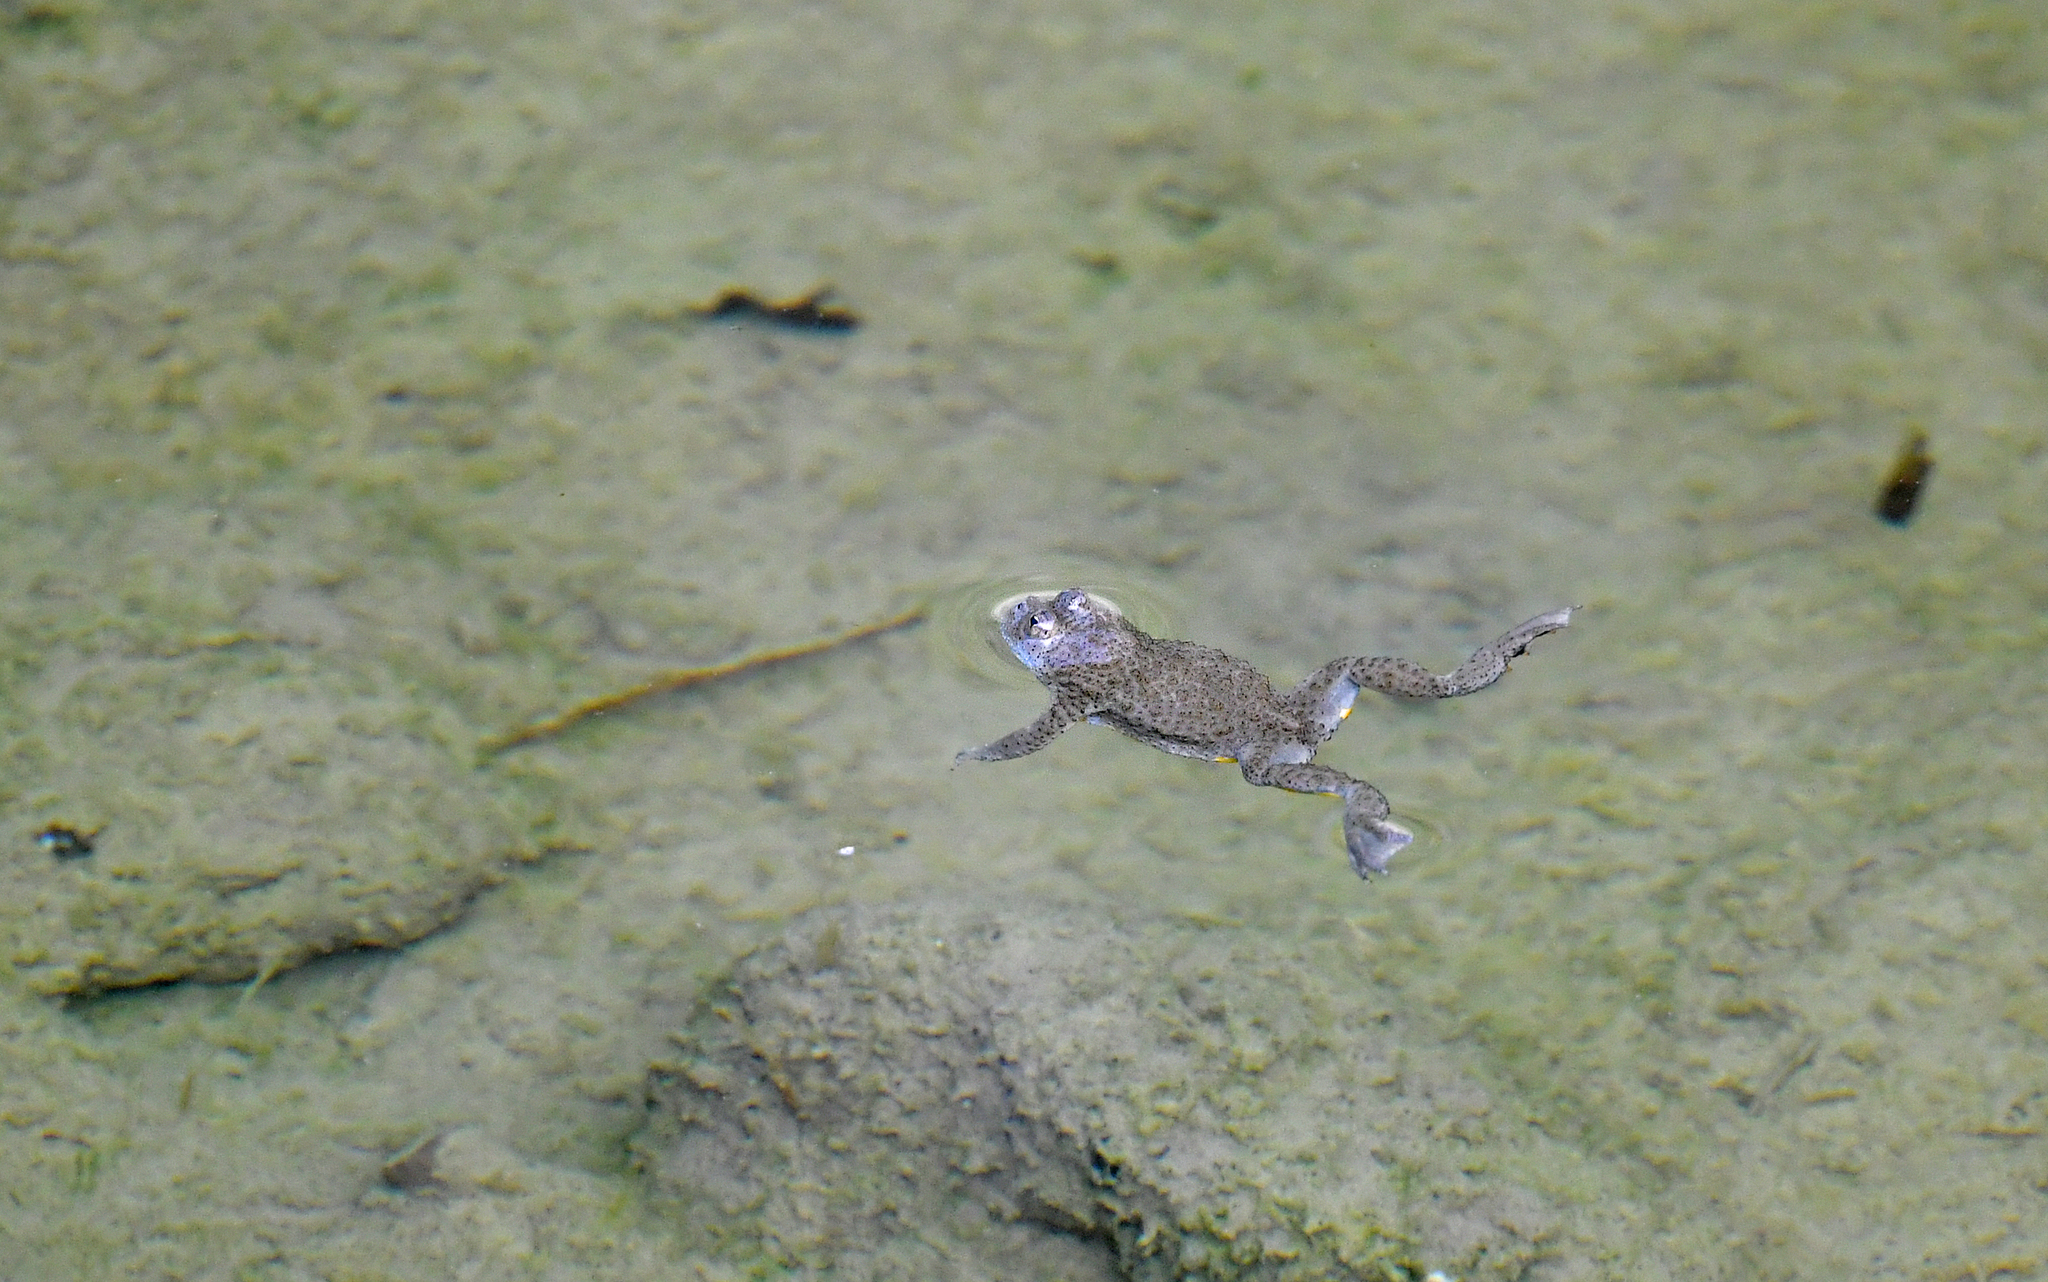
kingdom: Animalia
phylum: Chordata
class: Amphibia
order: Anura
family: Bombinatoridae
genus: Bombina
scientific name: Bombina variegata
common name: Yellow-bellied toad
